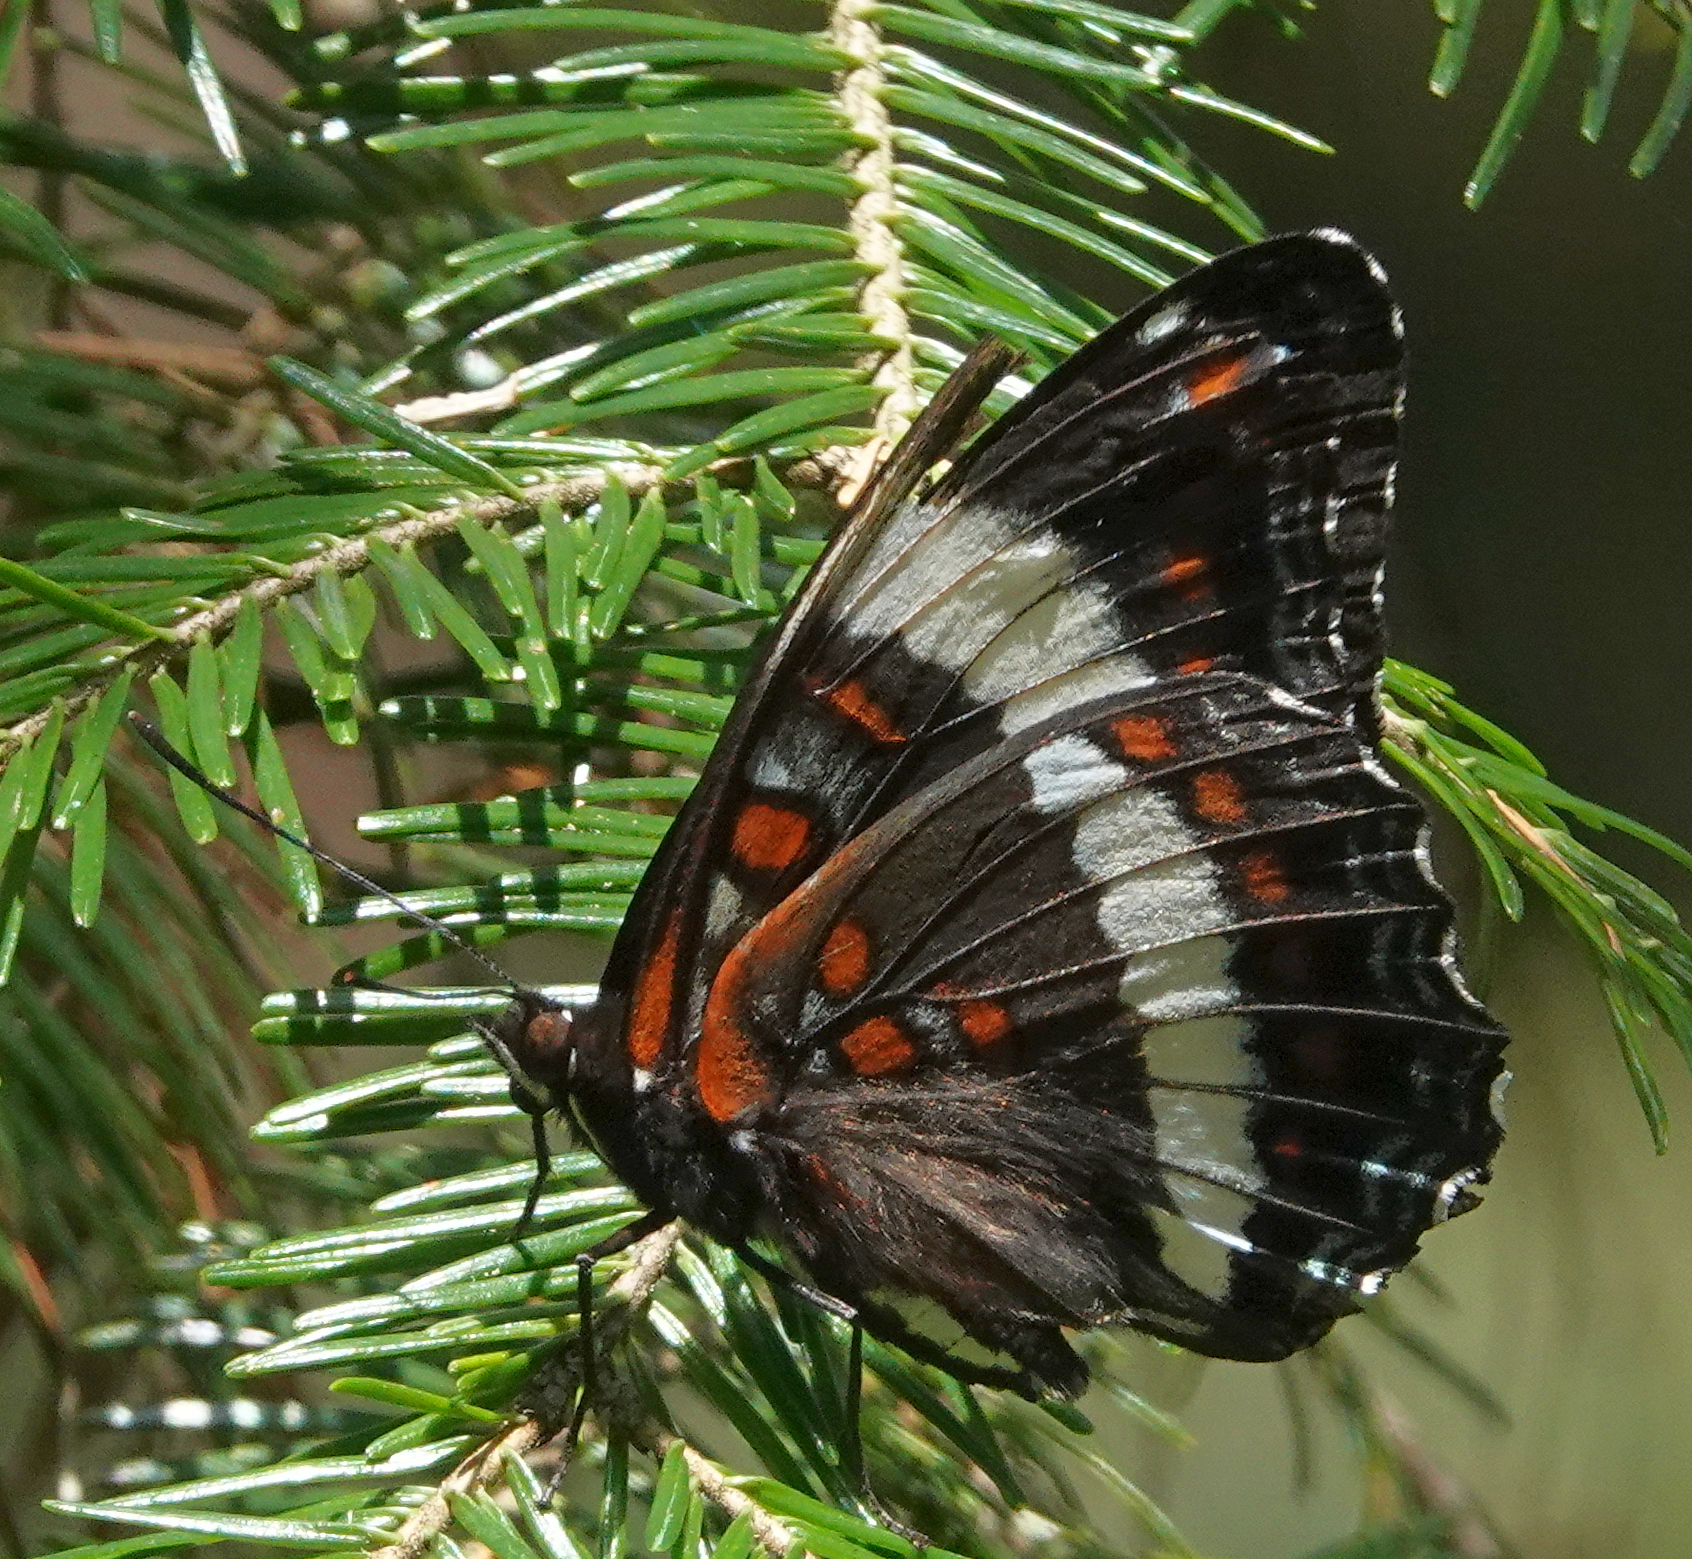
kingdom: Animalia
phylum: Arthropoda
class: Insecta
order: Lepidoptera
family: Nymphalidae
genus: Limenitis
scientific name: Limenitis arthemis
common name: Red-spotted admiral
